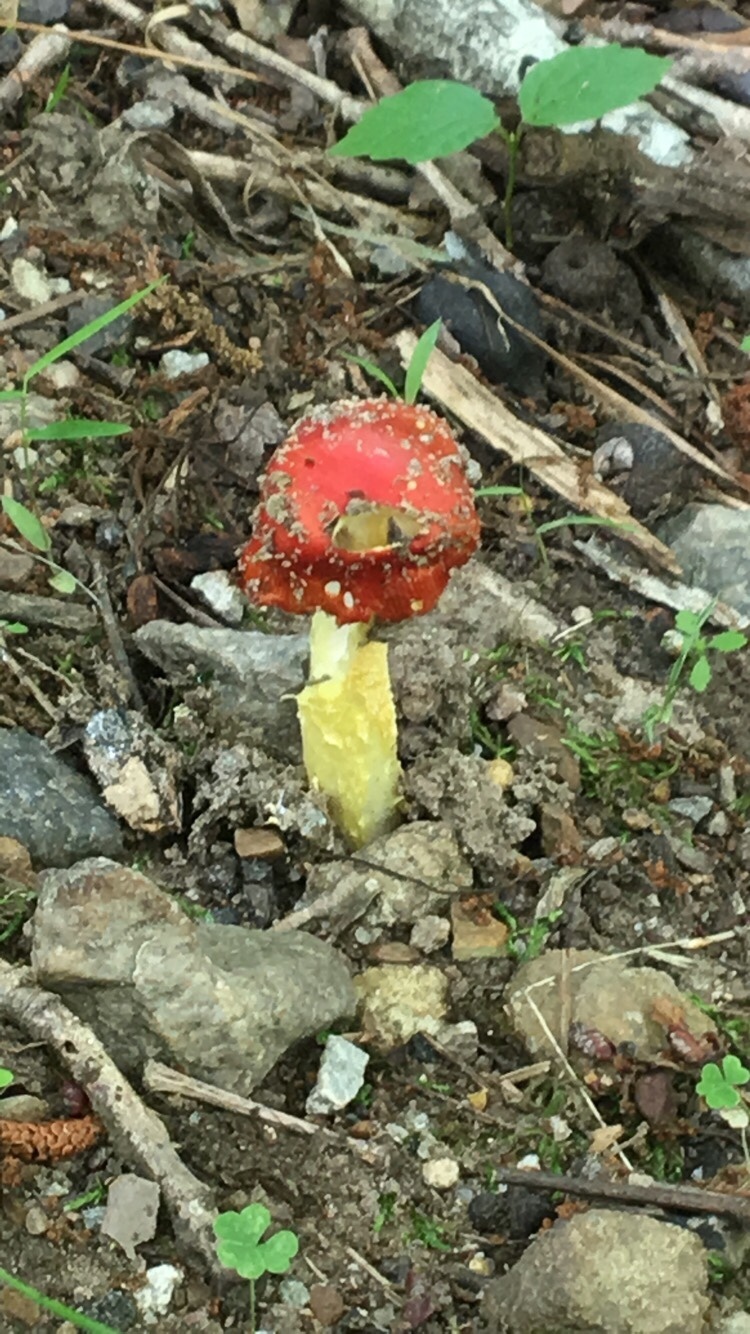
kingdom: Fungi
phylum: Basidiomycota
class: Agaricomycetes
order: Agaricales
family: Amanitaceae
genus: Amanita
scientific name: Amanita parcivolvata
